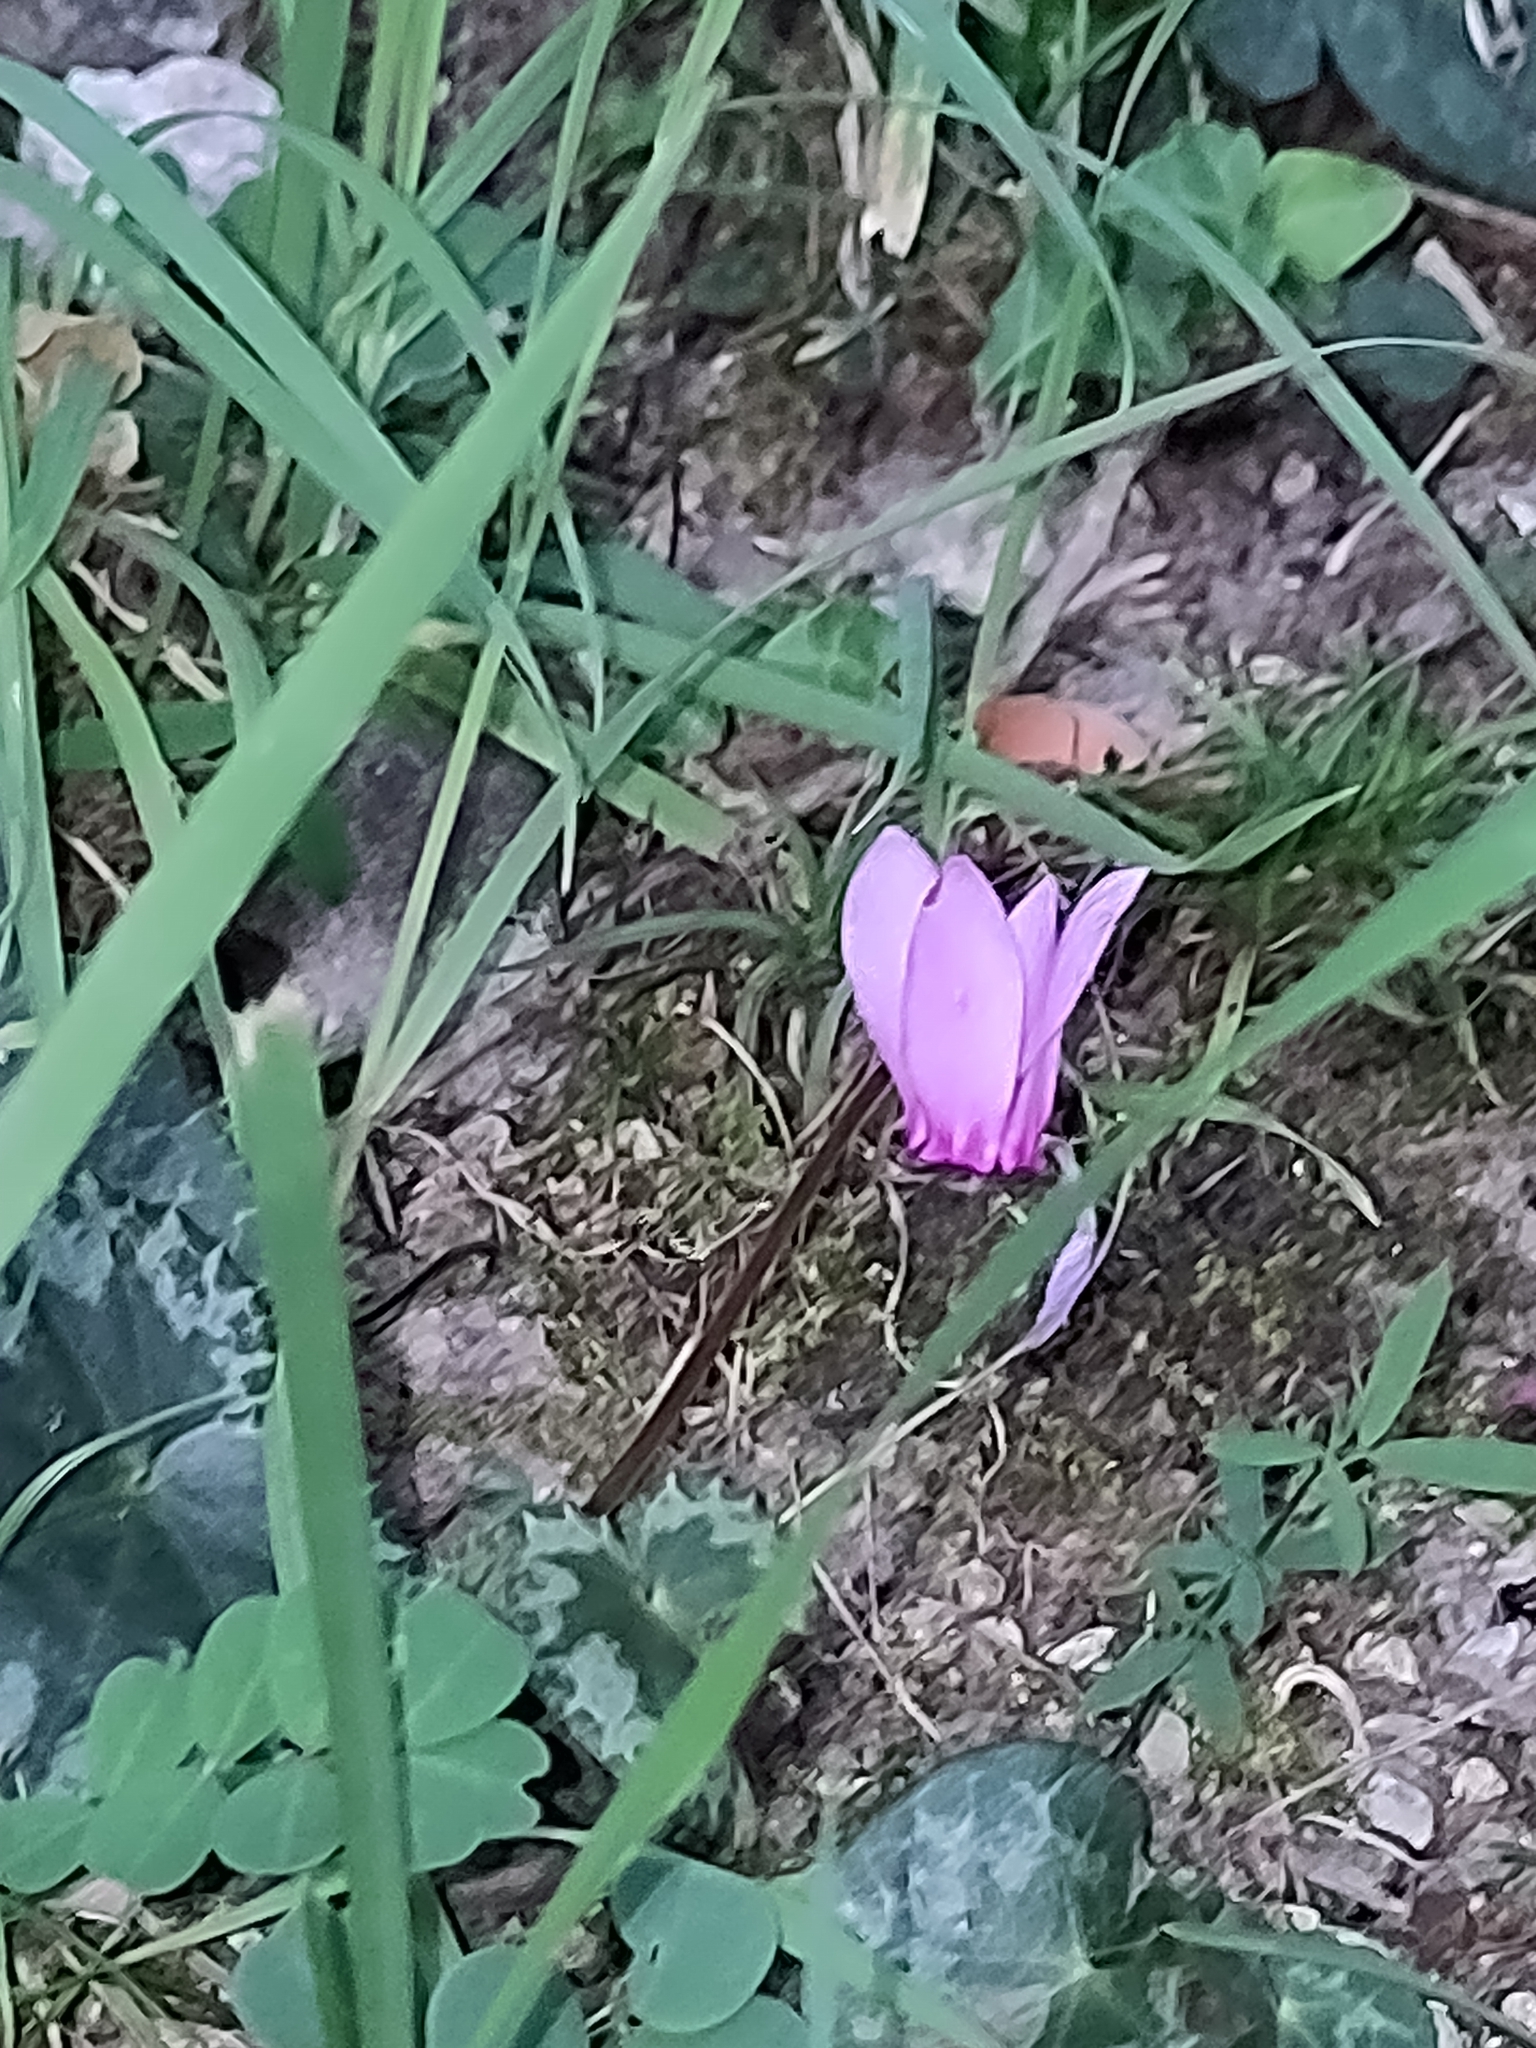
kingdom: Plantae
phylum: Tracheophyta
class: Magnoliopsida
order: Ericales
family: Primulaceae
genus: Cyclamen
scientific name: Cyclamen purpurascens
